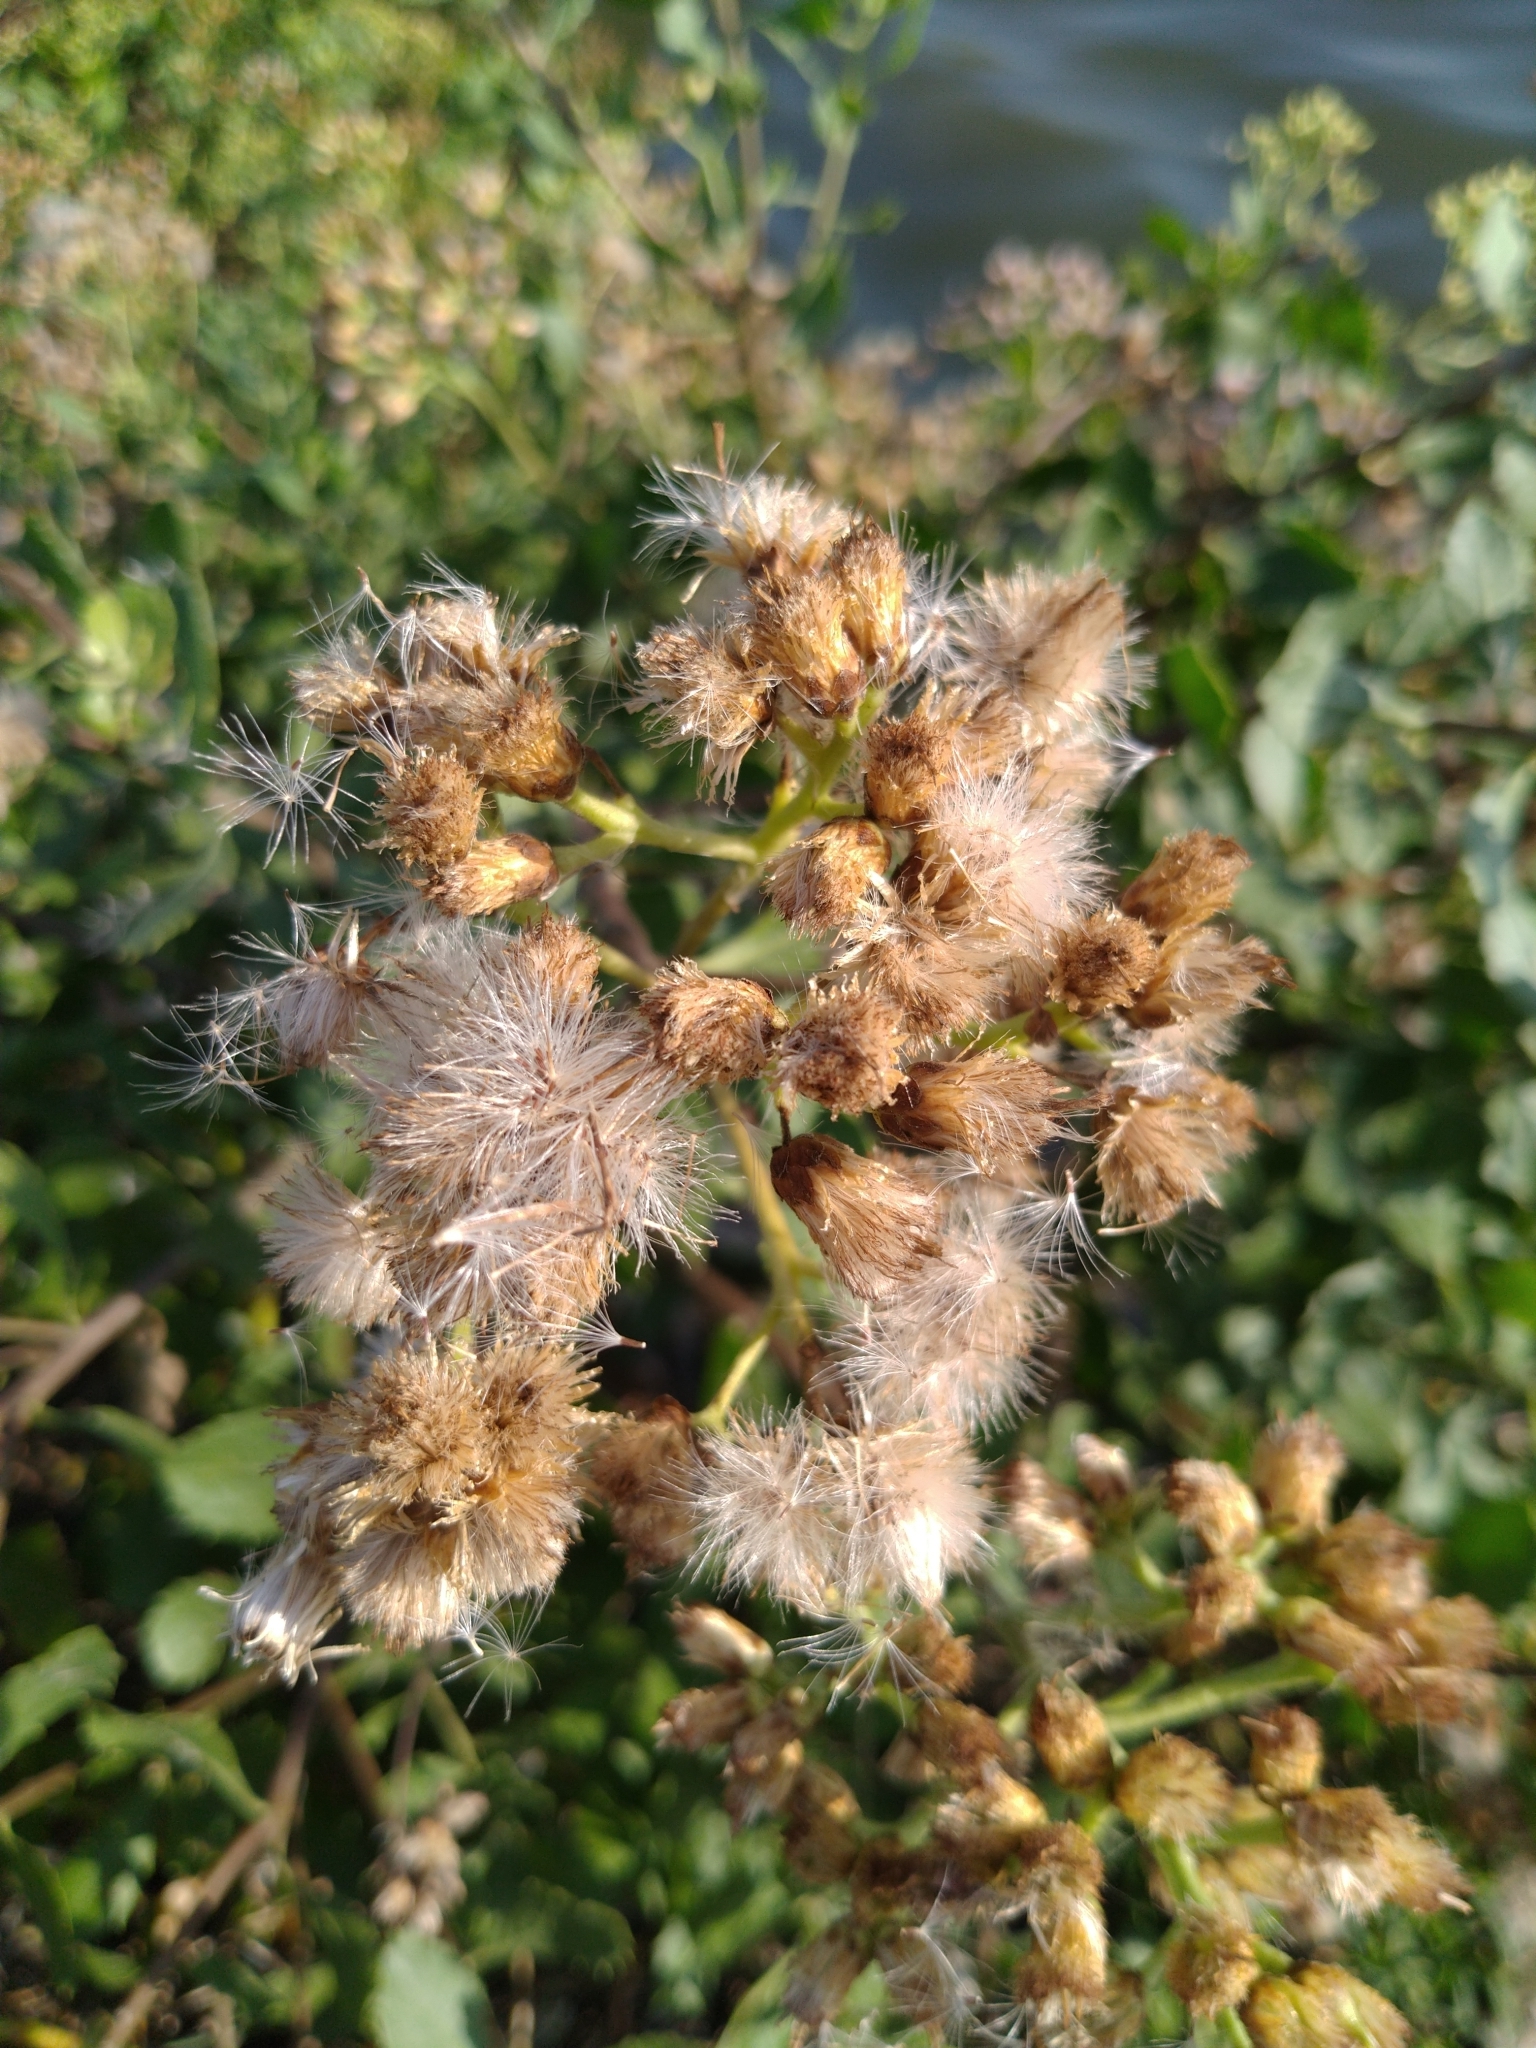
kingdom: Plantae
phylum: Tracheophyta
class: Magnoliopsida
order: Asterales
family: Asteraceae
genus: Pluchea
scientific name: Pluchea indica
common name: Indian fleabane
